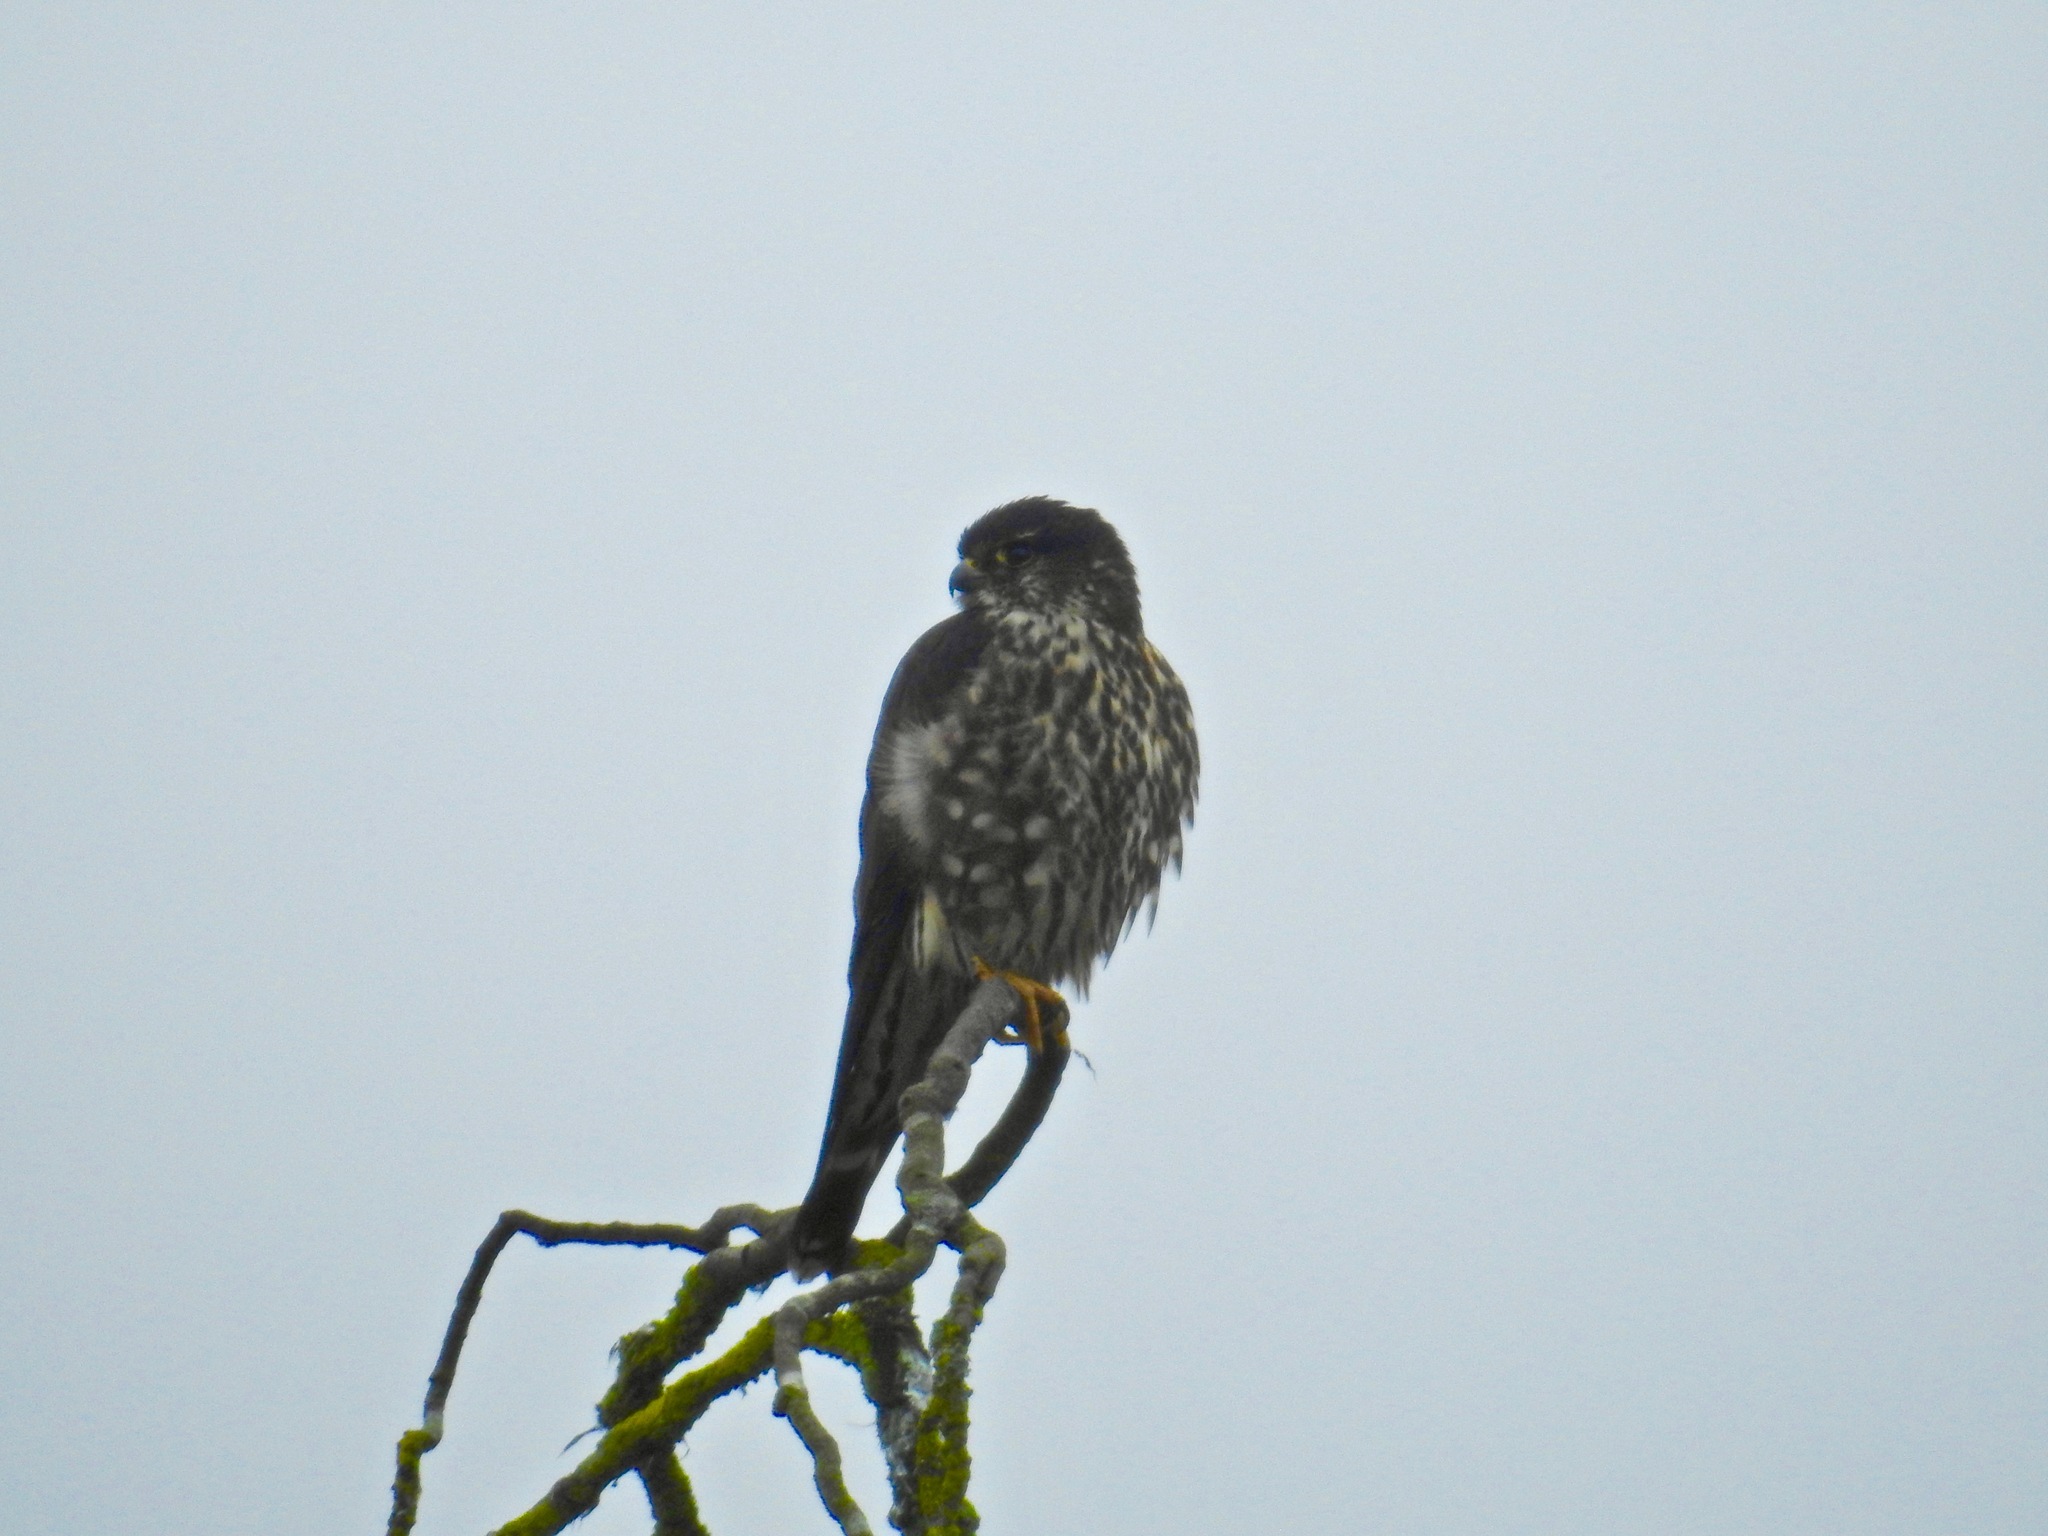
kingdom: Animalia
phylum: Chordata
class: Aves
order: Falconiformes
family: Falconidae
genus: Falco
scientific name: Falco columbarius
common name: Merlin
